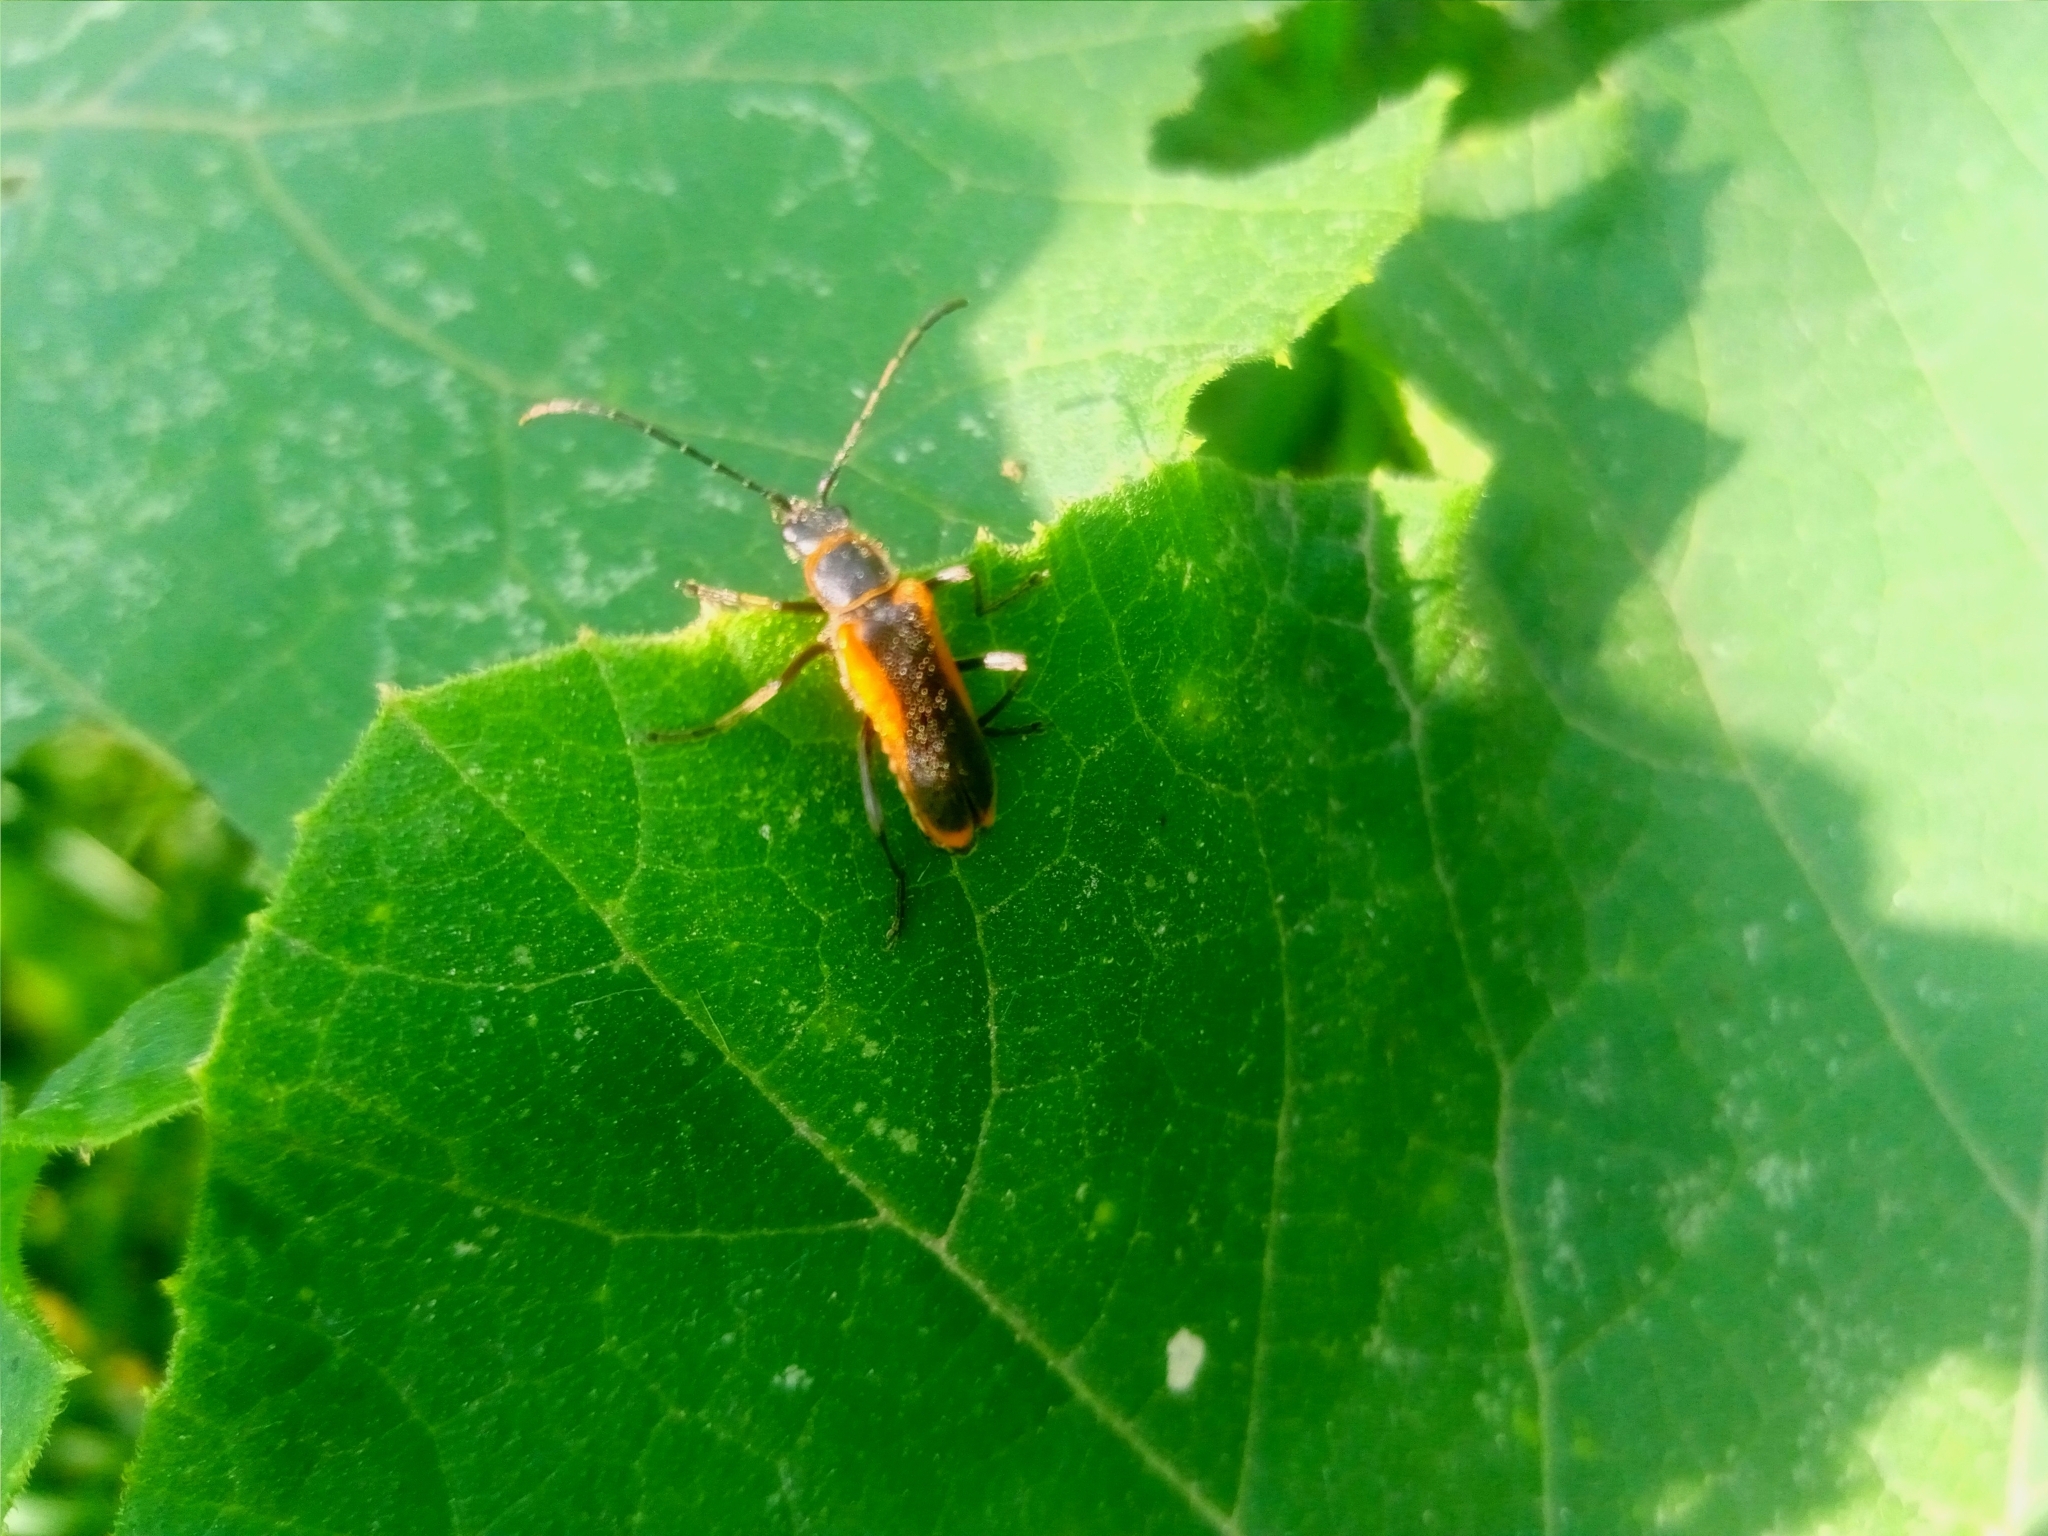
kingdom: Animalia
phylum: Arthropoda
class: Insecta
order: Coleoptera
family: Cantharidae
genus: Chauliognathus
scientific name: Chauliognathus limbicollis
